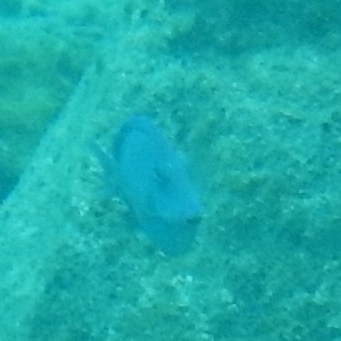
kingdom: Animalia
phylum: Chordata
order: Perciformes
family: Acanthuridae
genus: Acanthurus
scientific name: Acanthurus coeruleus
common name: Blue tang
